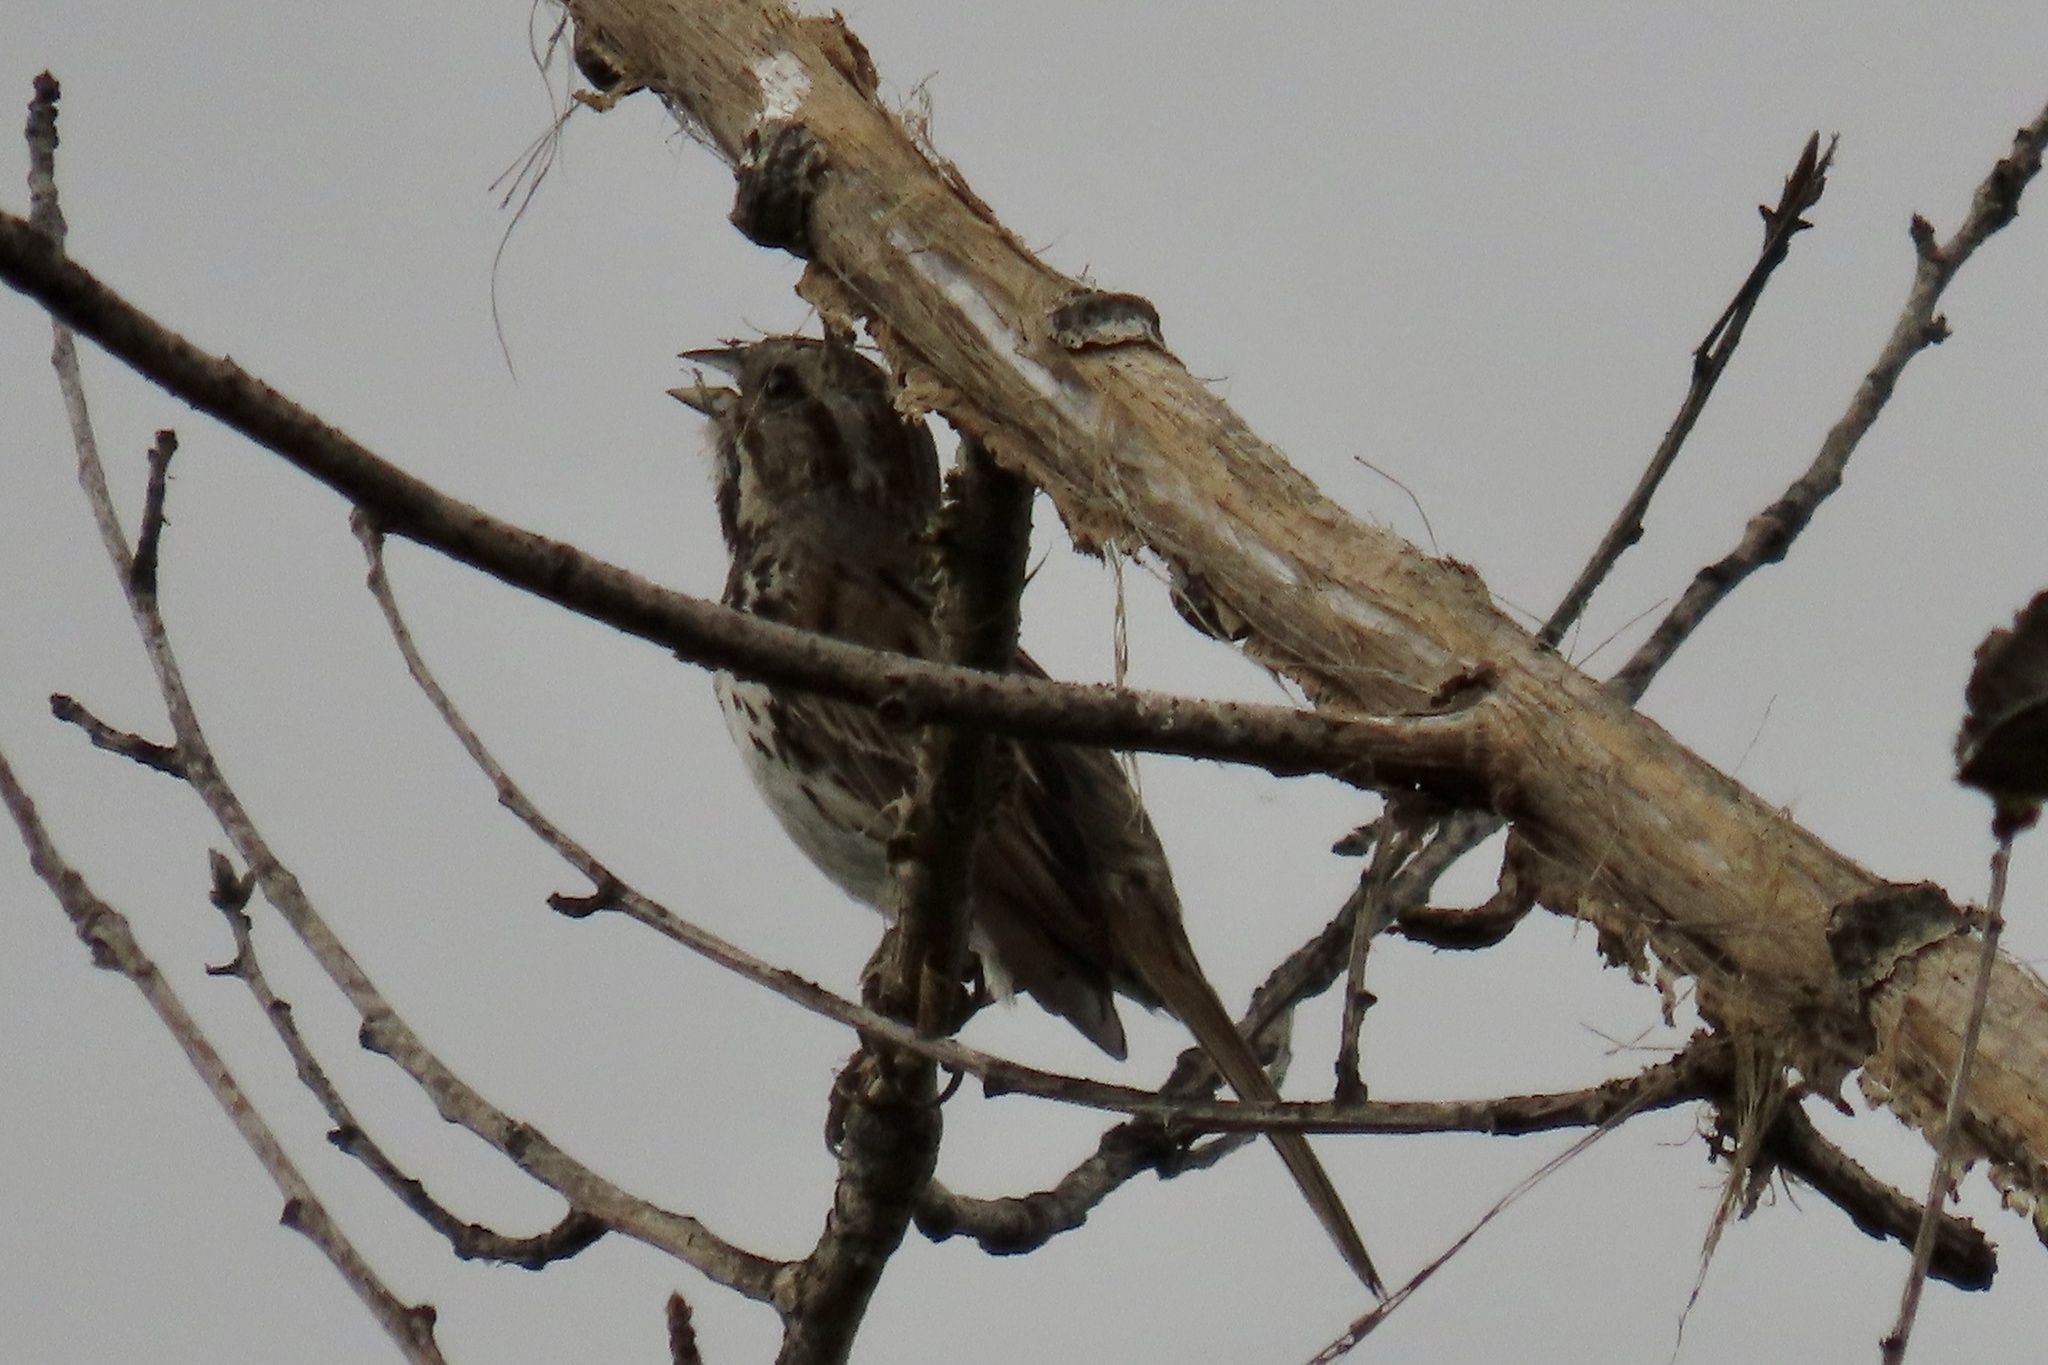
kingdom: Animalia
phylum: Chordata
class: Aves
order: Passeriformes
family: Passerellidae
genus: Melospiza
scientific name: Melospiza melodia
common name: Song sparrow
